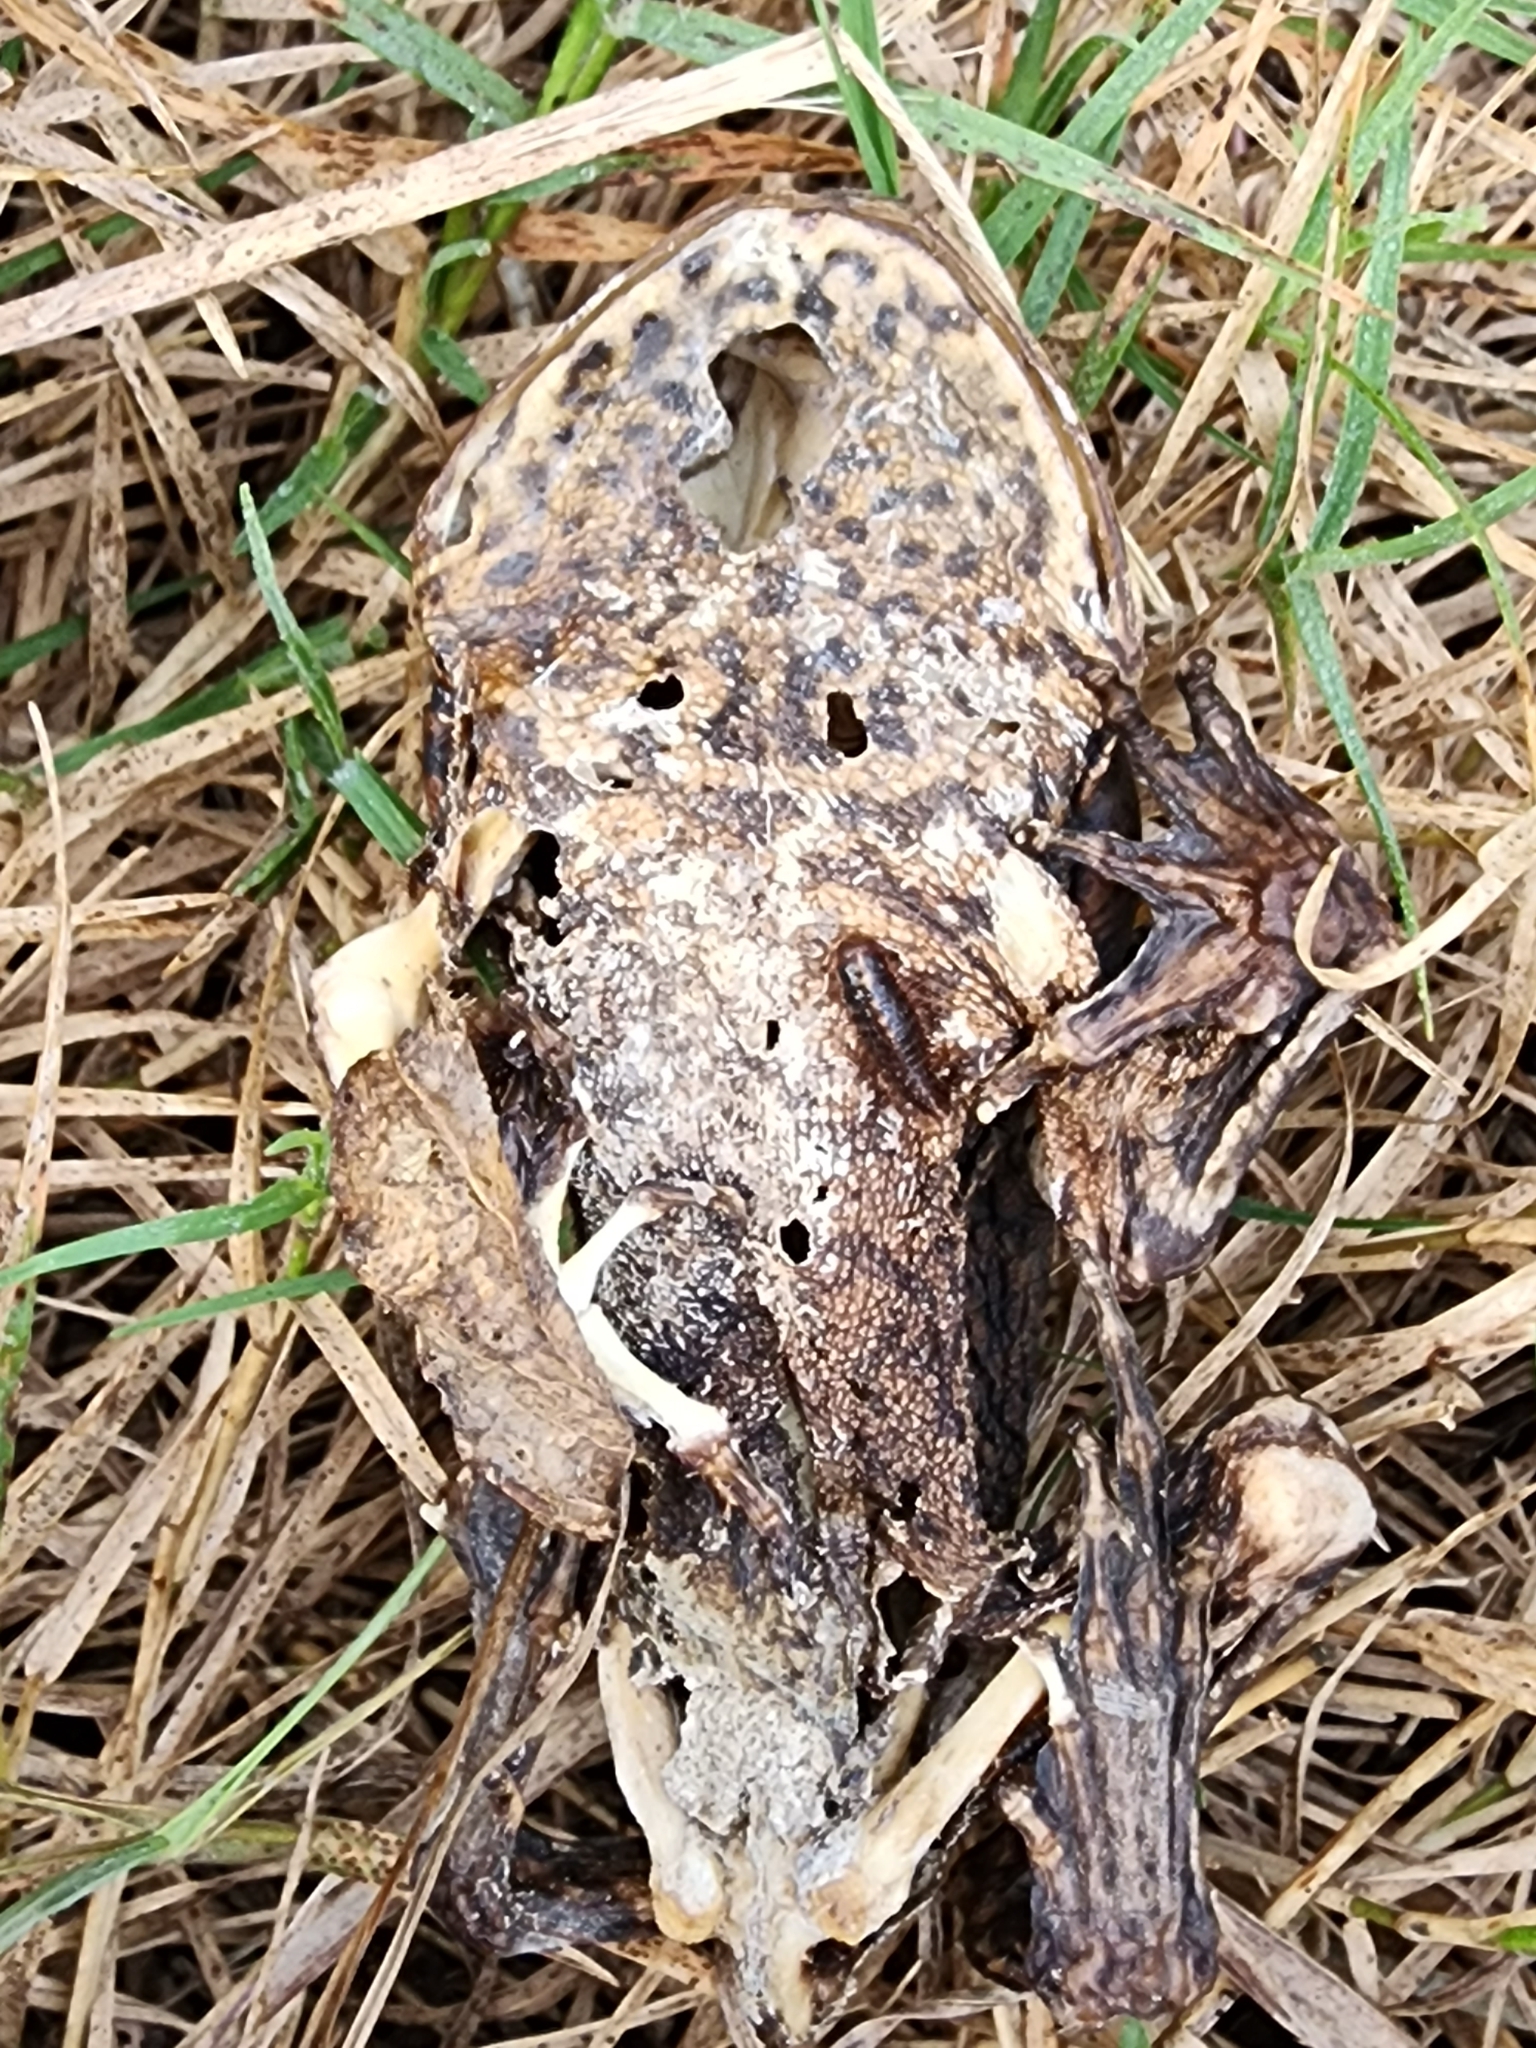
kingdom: Animalia
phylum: Chordata
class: Amphibia
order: Anura
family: Bufonidae
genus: Rhinella
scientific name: Rhinella marina
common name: Cane toad
